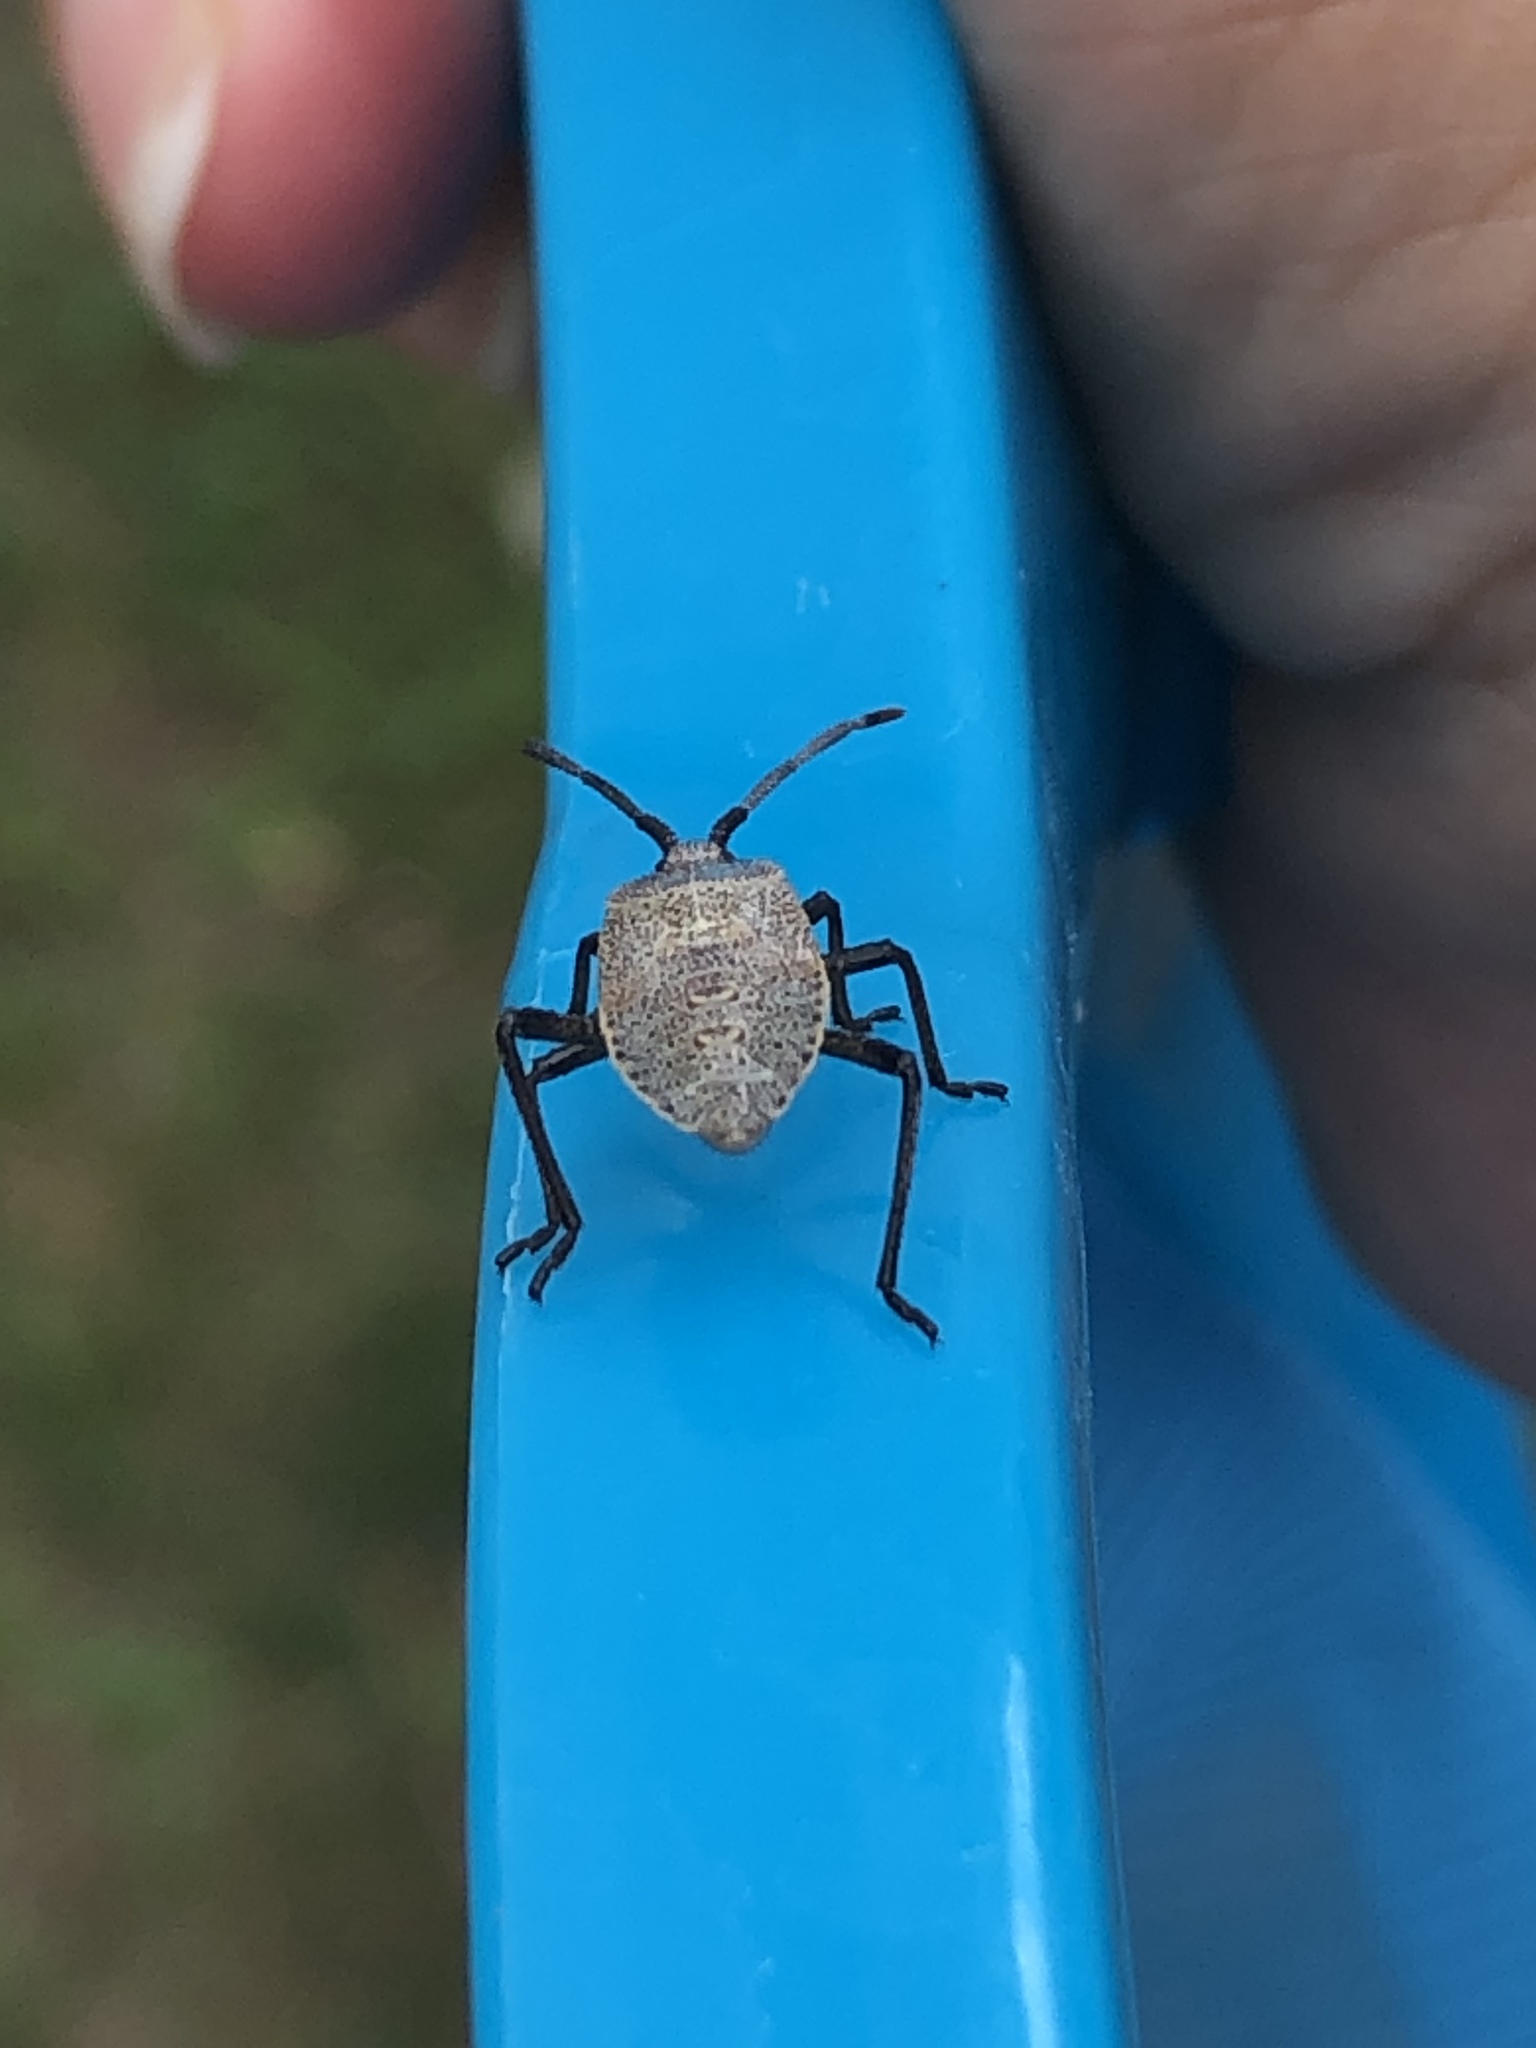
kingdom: Animalia
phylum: Arthropoda
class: Insecta
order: Hemiptera
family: Coreidae
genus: Anasa
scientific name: Anasa tristis
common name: Squash bug
